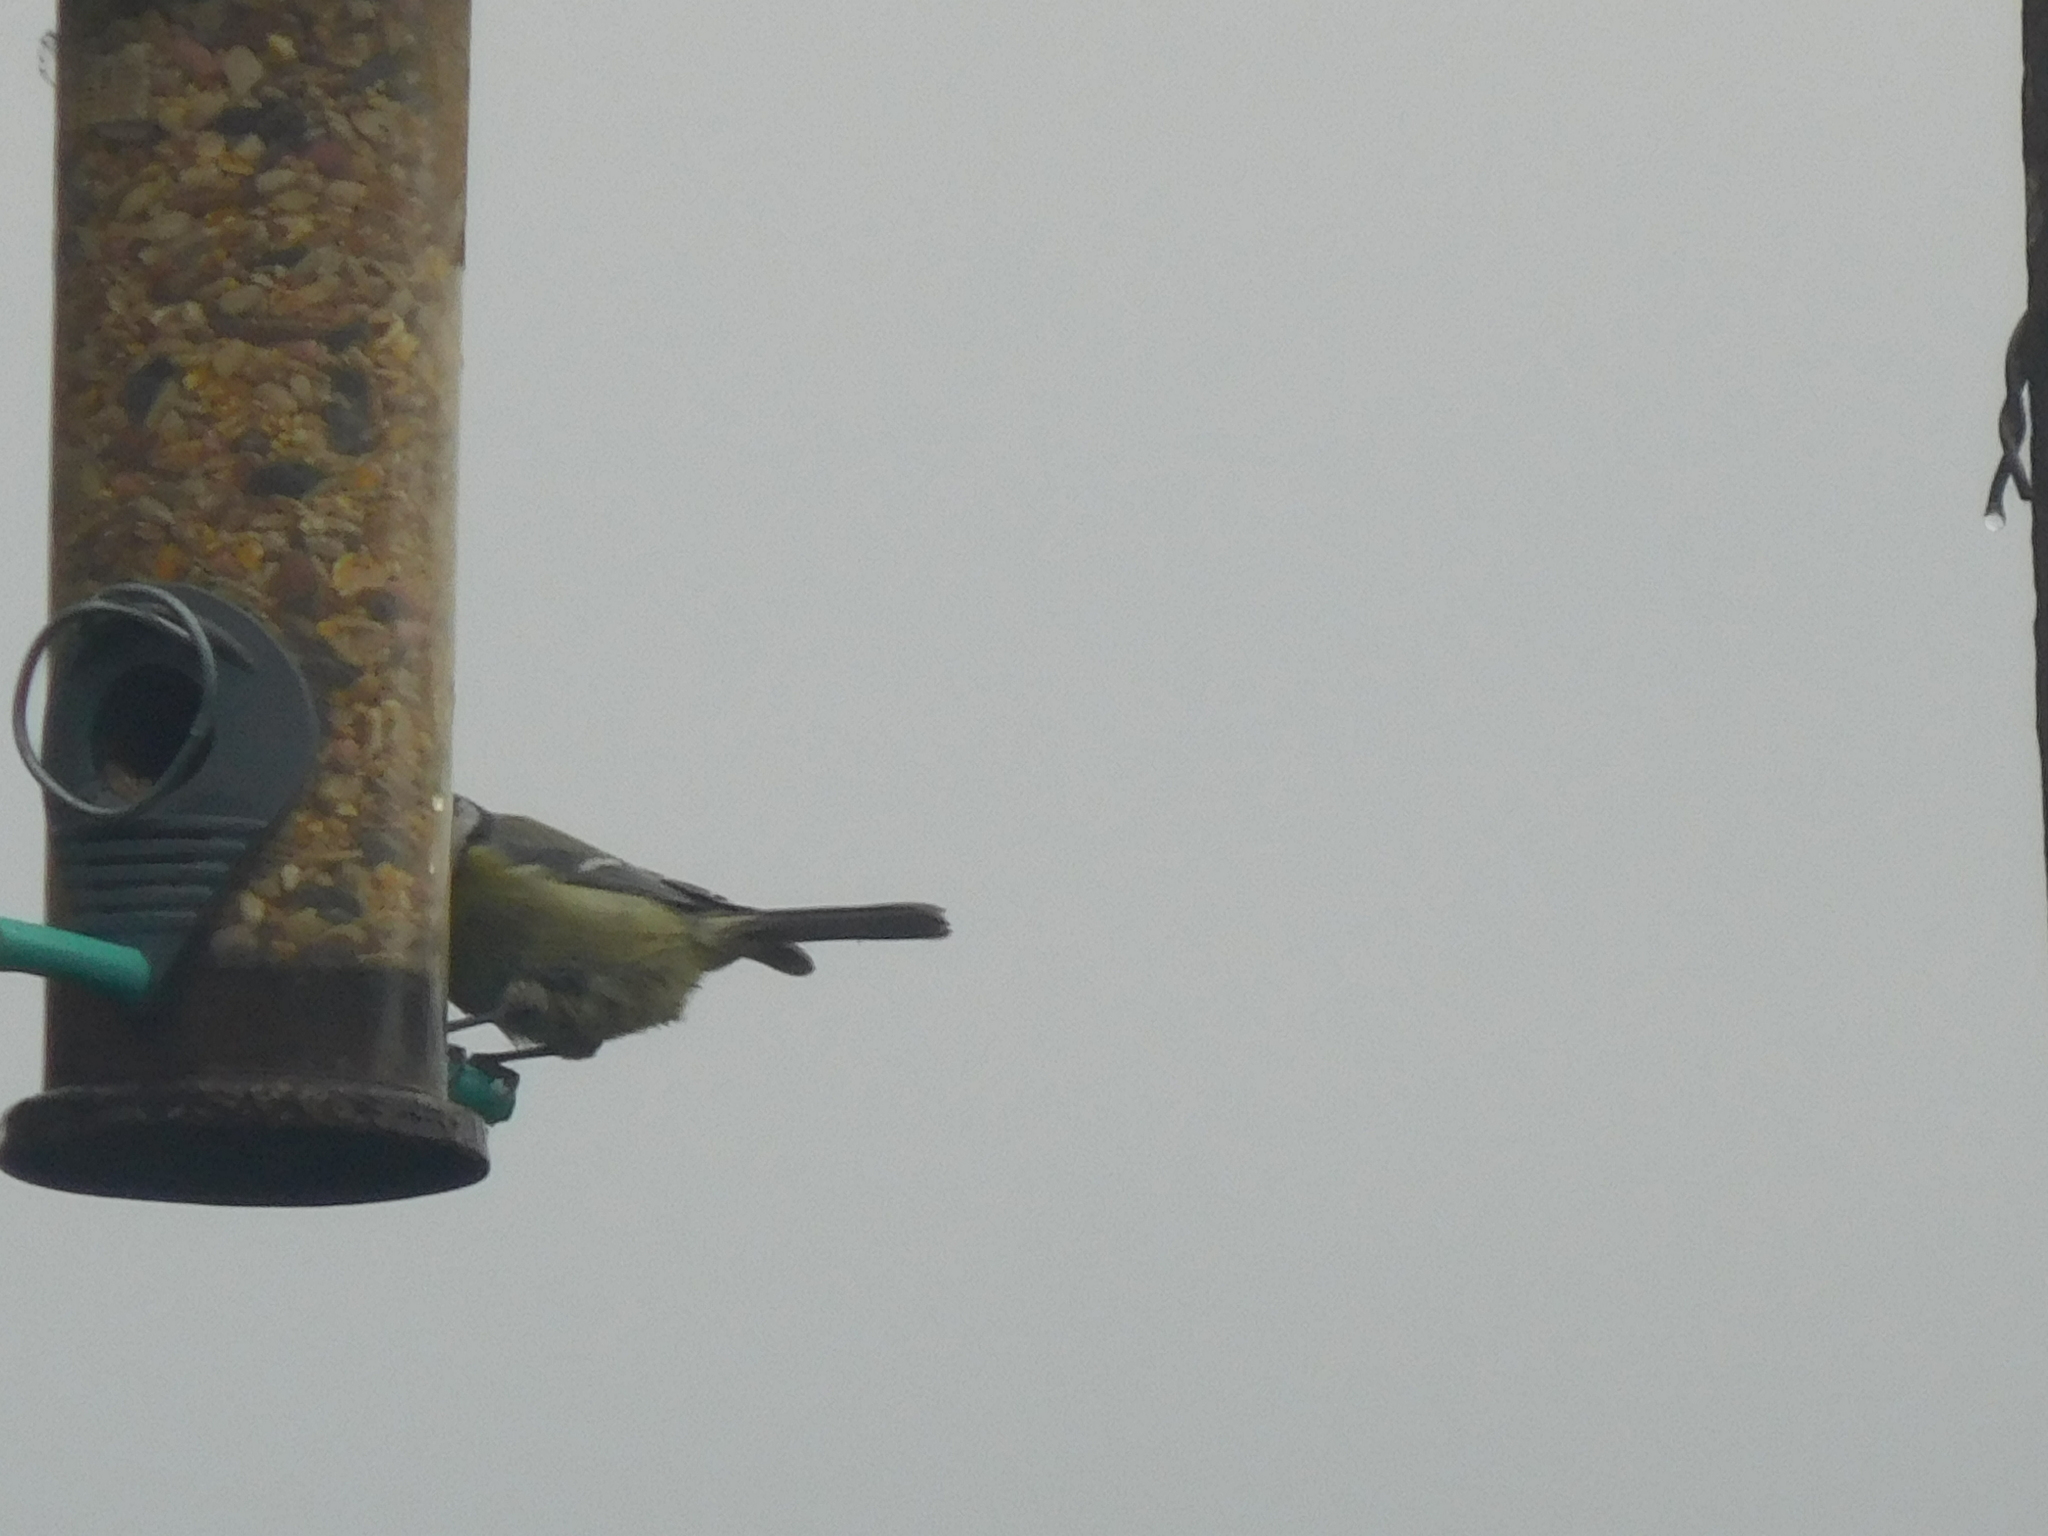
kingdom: Animalia
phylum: Chordata
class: Aves
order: Passeriformes
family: Paridae
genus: Cyanistes
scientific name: Cyanistes caeruleus
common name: Eurasian blue tit
